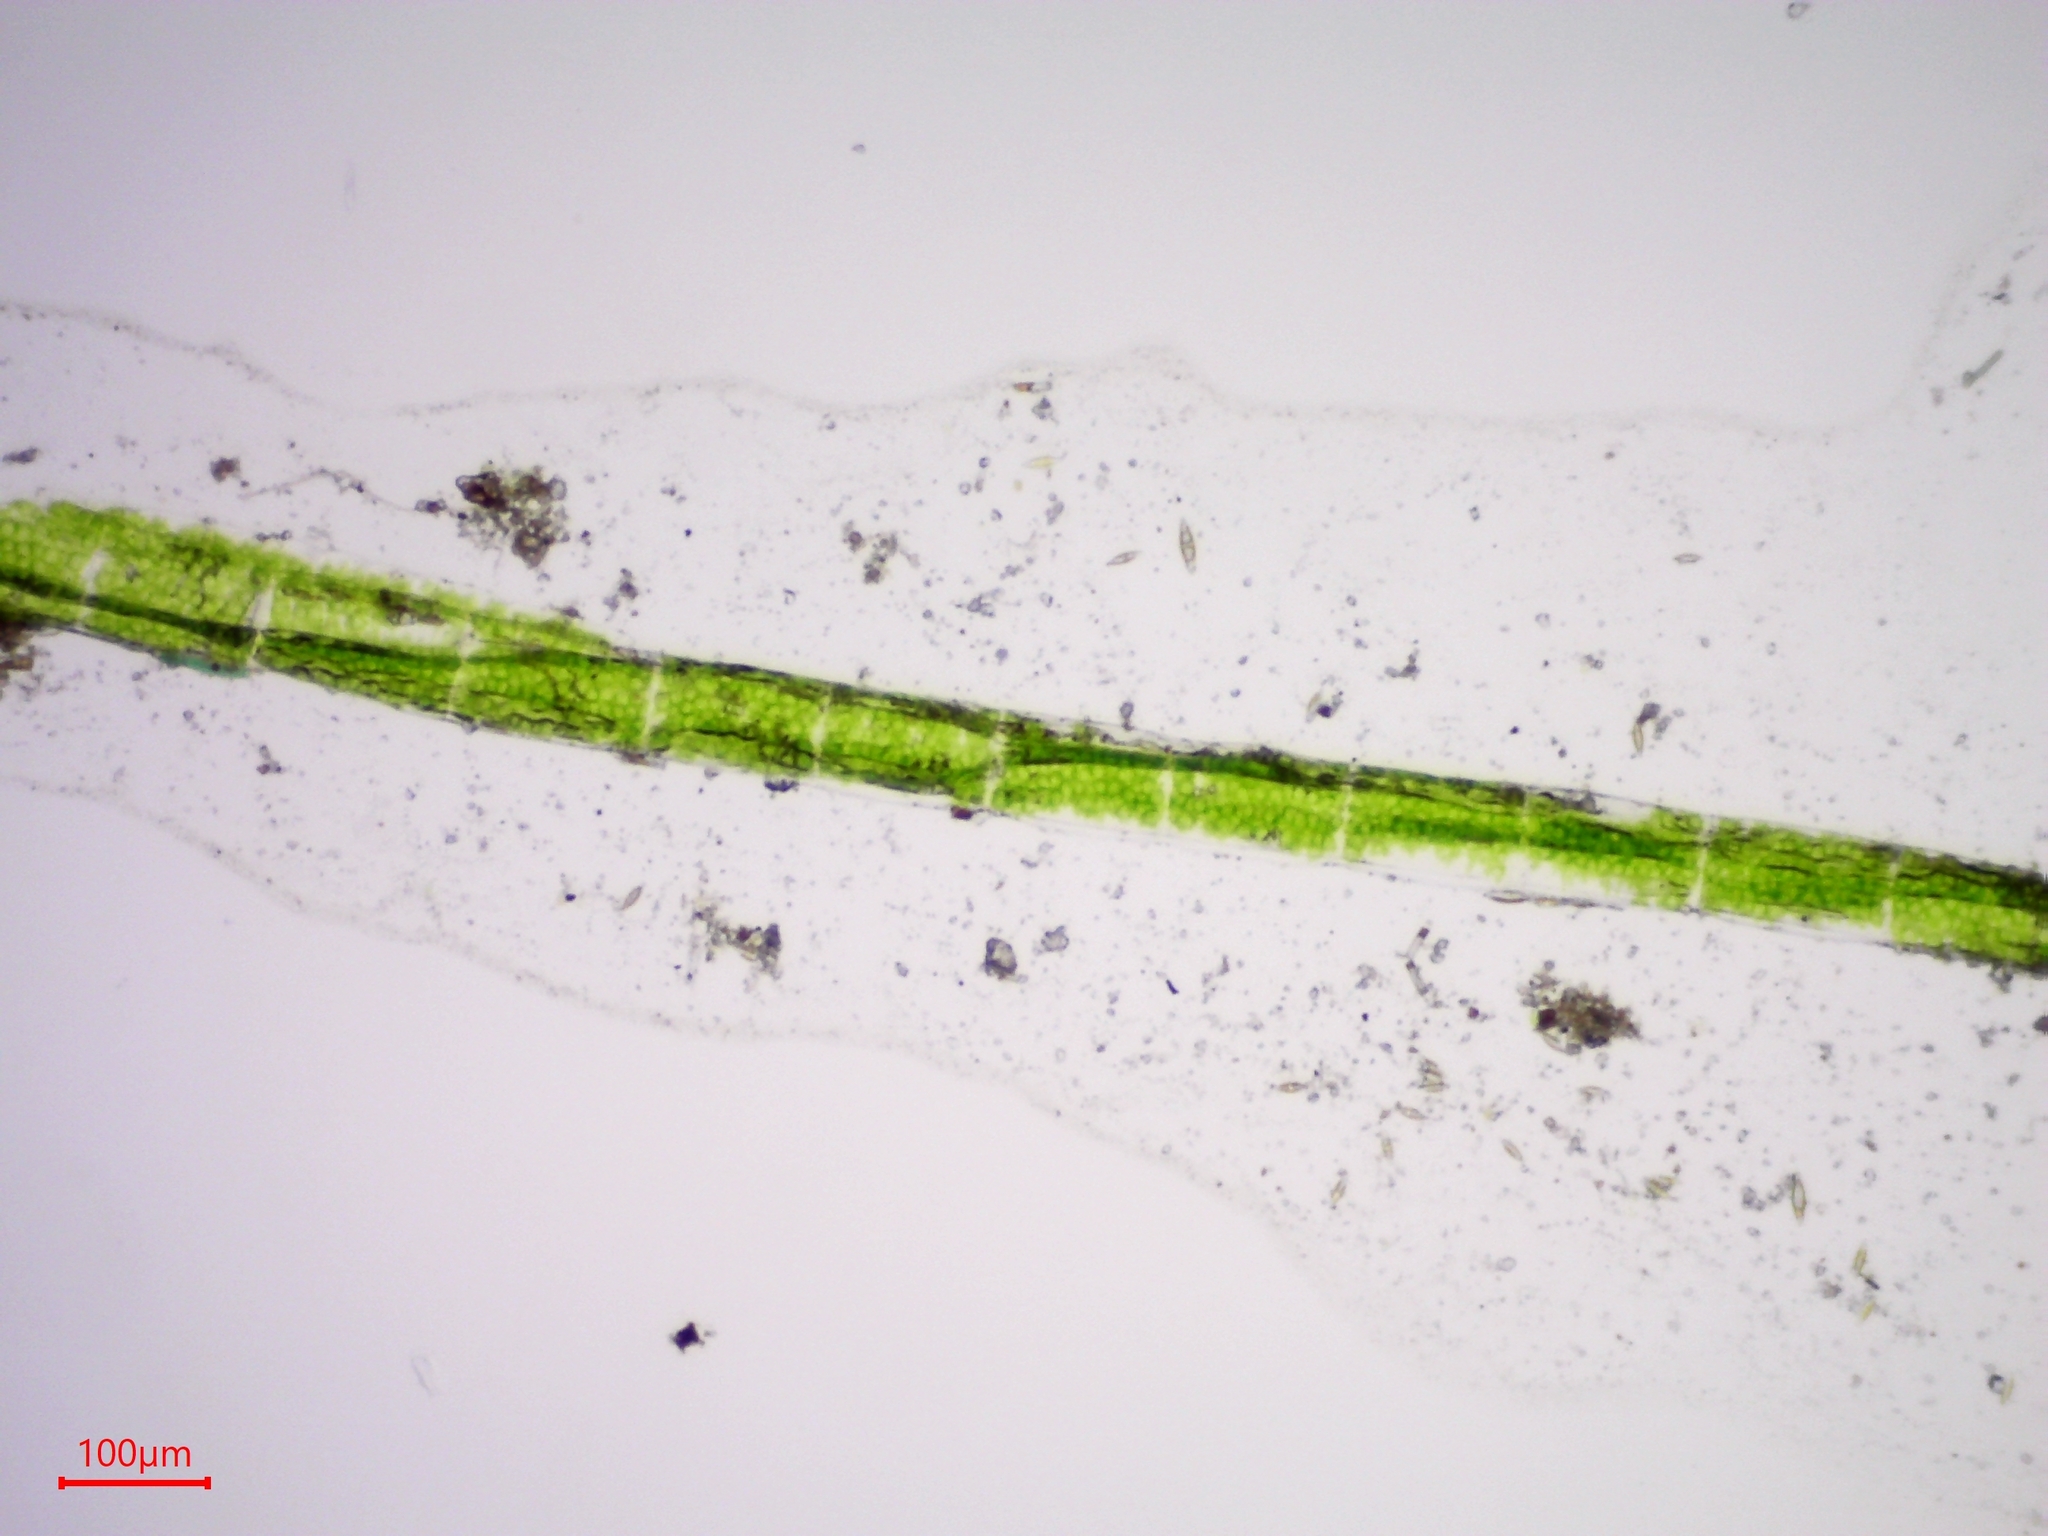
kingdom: Plantae
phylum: Charophyta
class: Zygnematophyceae
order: Zygnematales
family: Zygnemataceae
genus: Spirogyra
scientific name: Spirogyra
